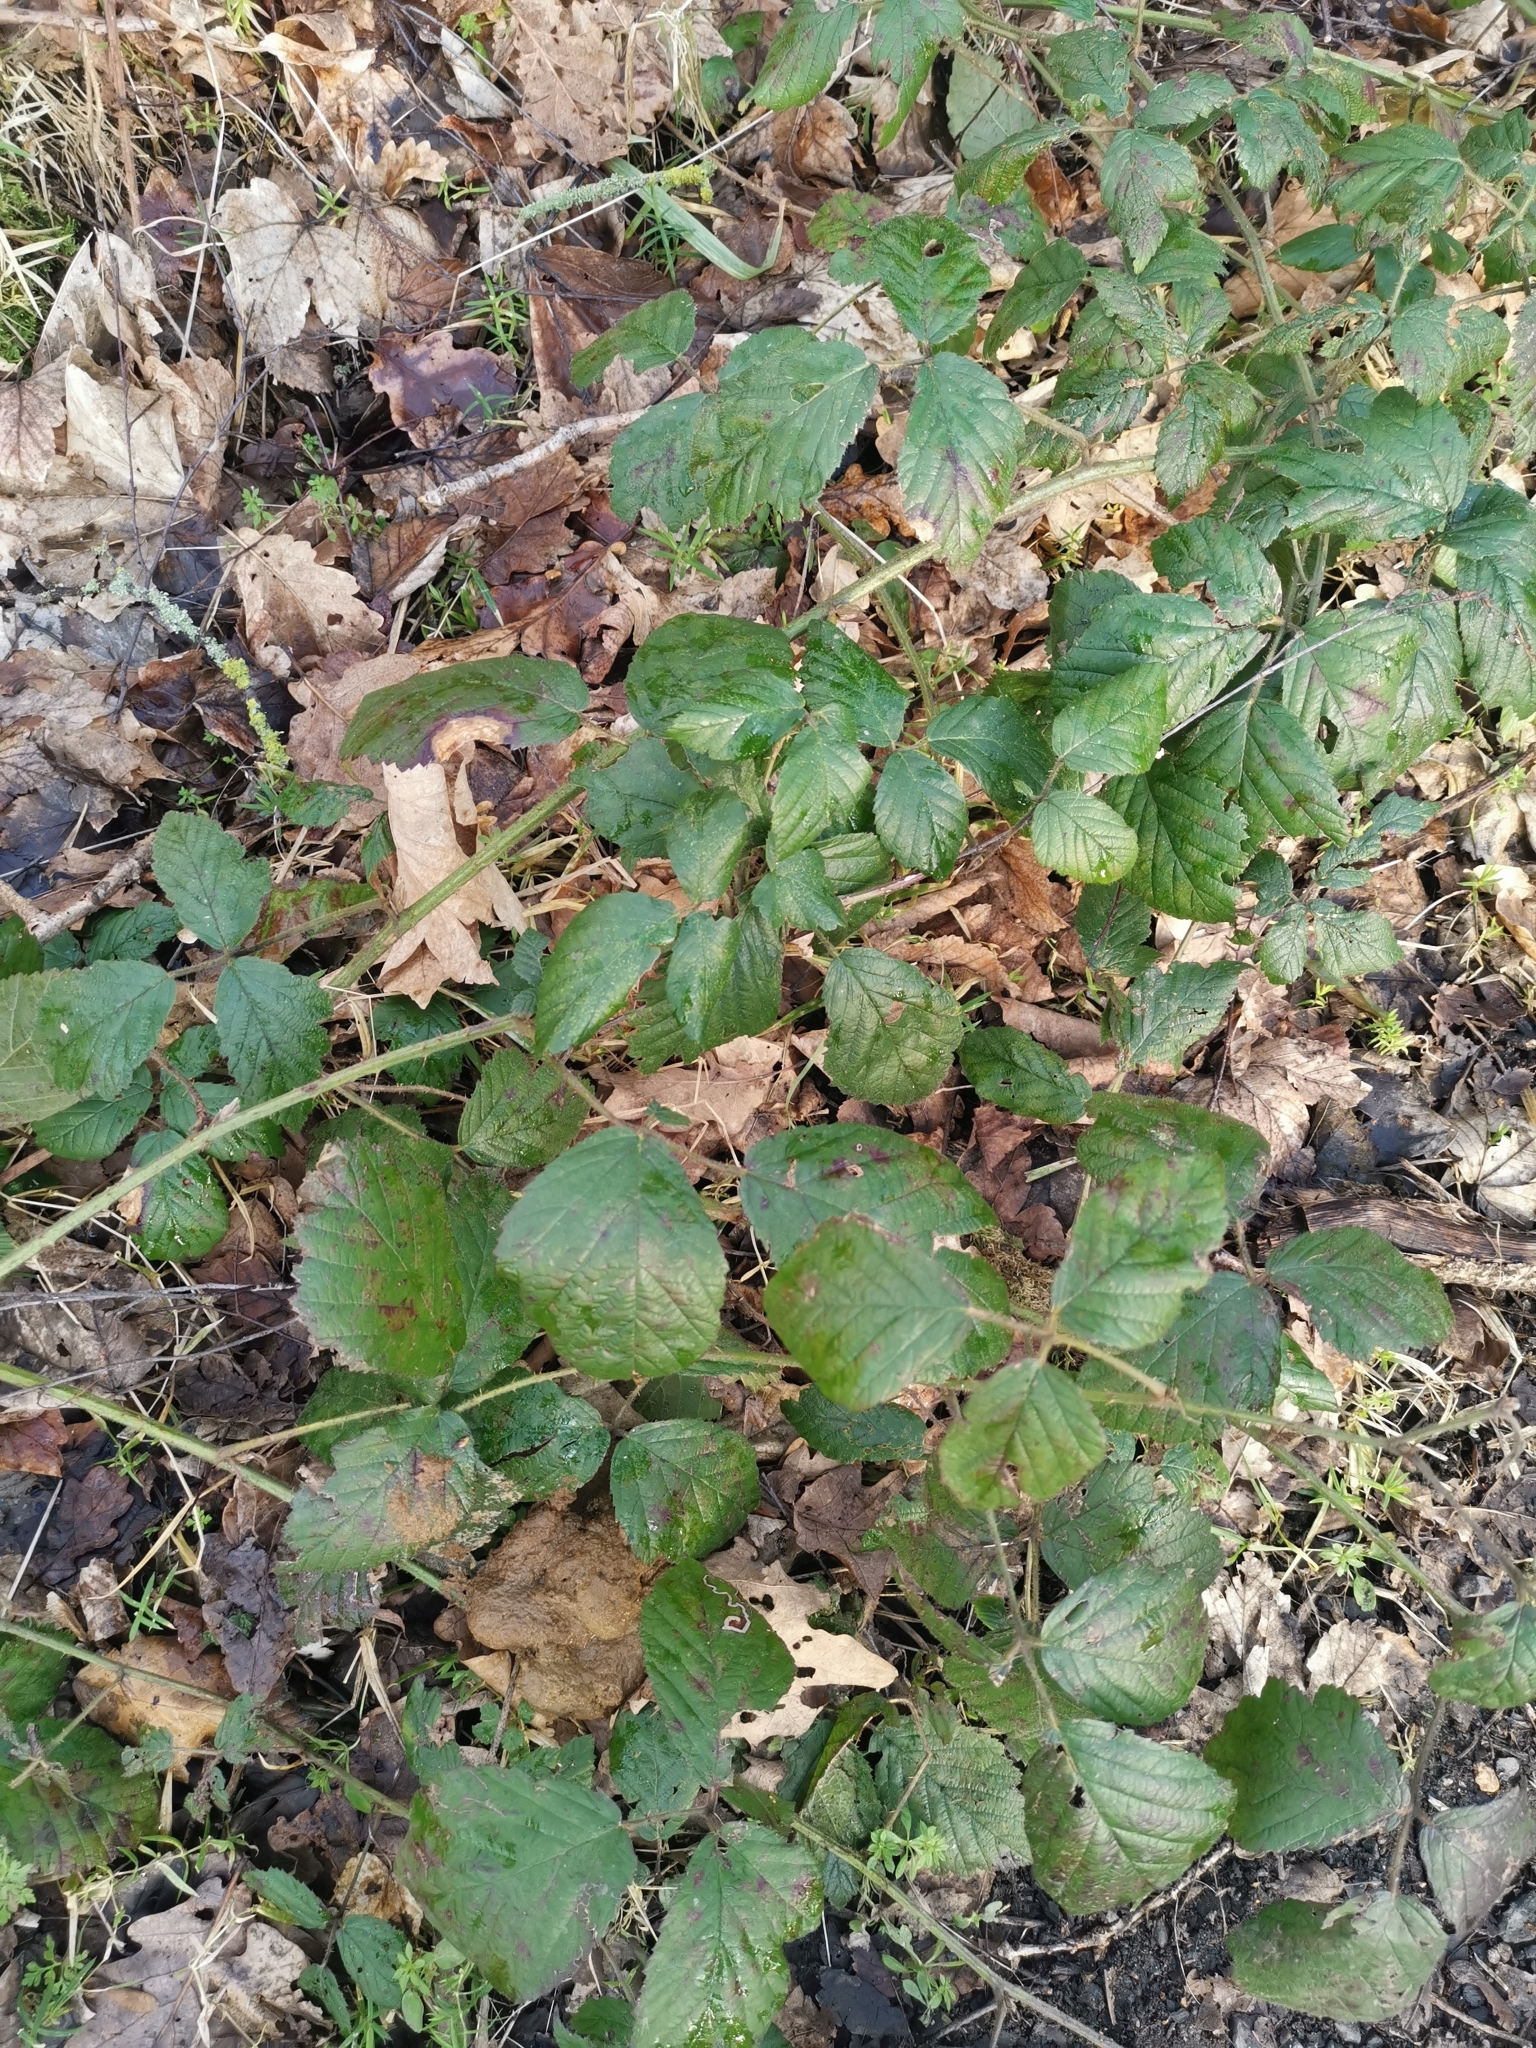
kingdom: Plantae
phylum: Tracheophyta
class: Magnoliopsida
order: Rosales
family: Rosaceae
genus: Rubus
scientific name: Rubus apetalus
